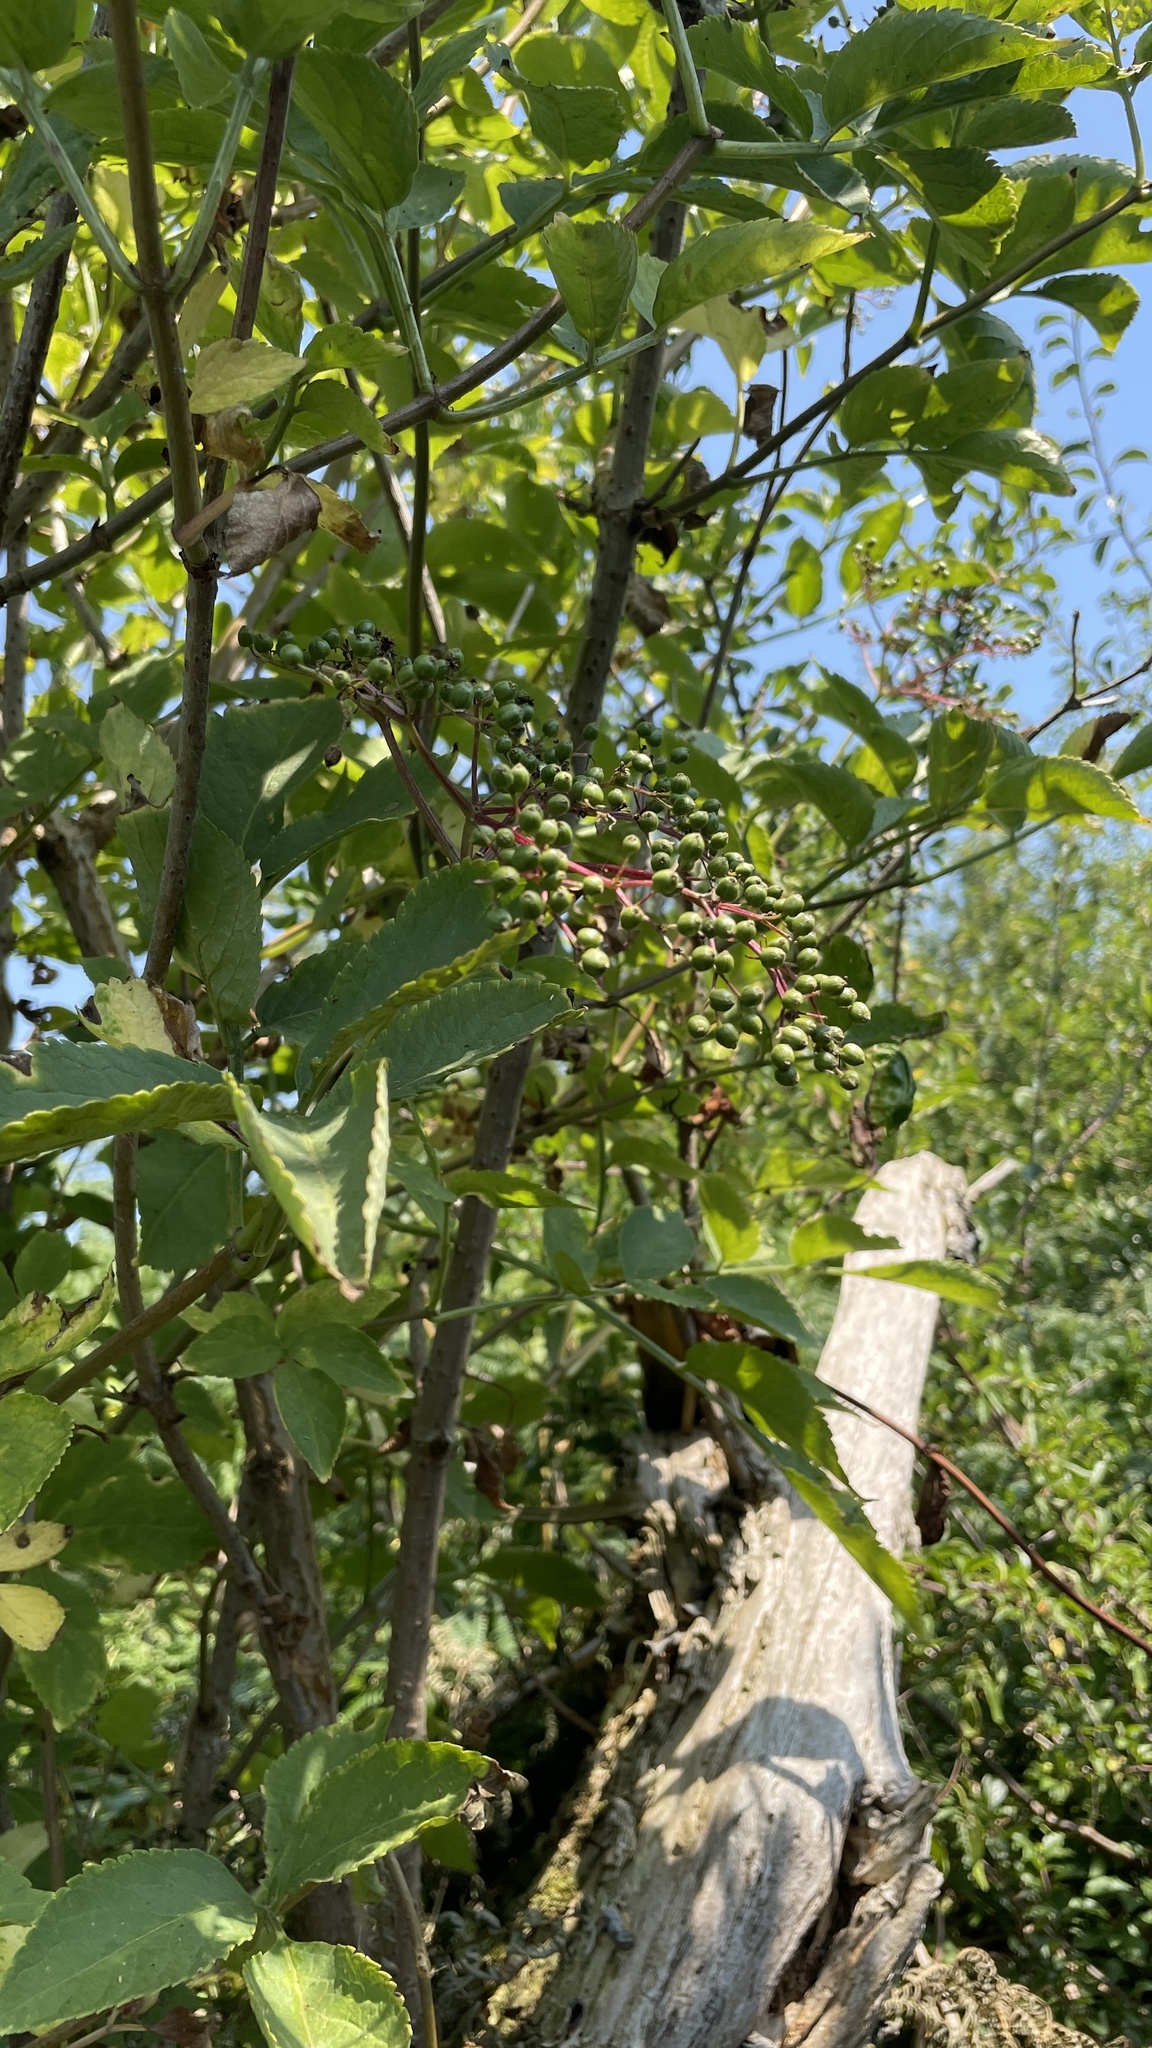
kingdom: Plantae
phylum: Tracheophyta
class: Magnoliopsida
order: Dipsacales
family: Viburnaceae
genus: Sambucus
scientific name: Sambucus nigra
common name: Elder
